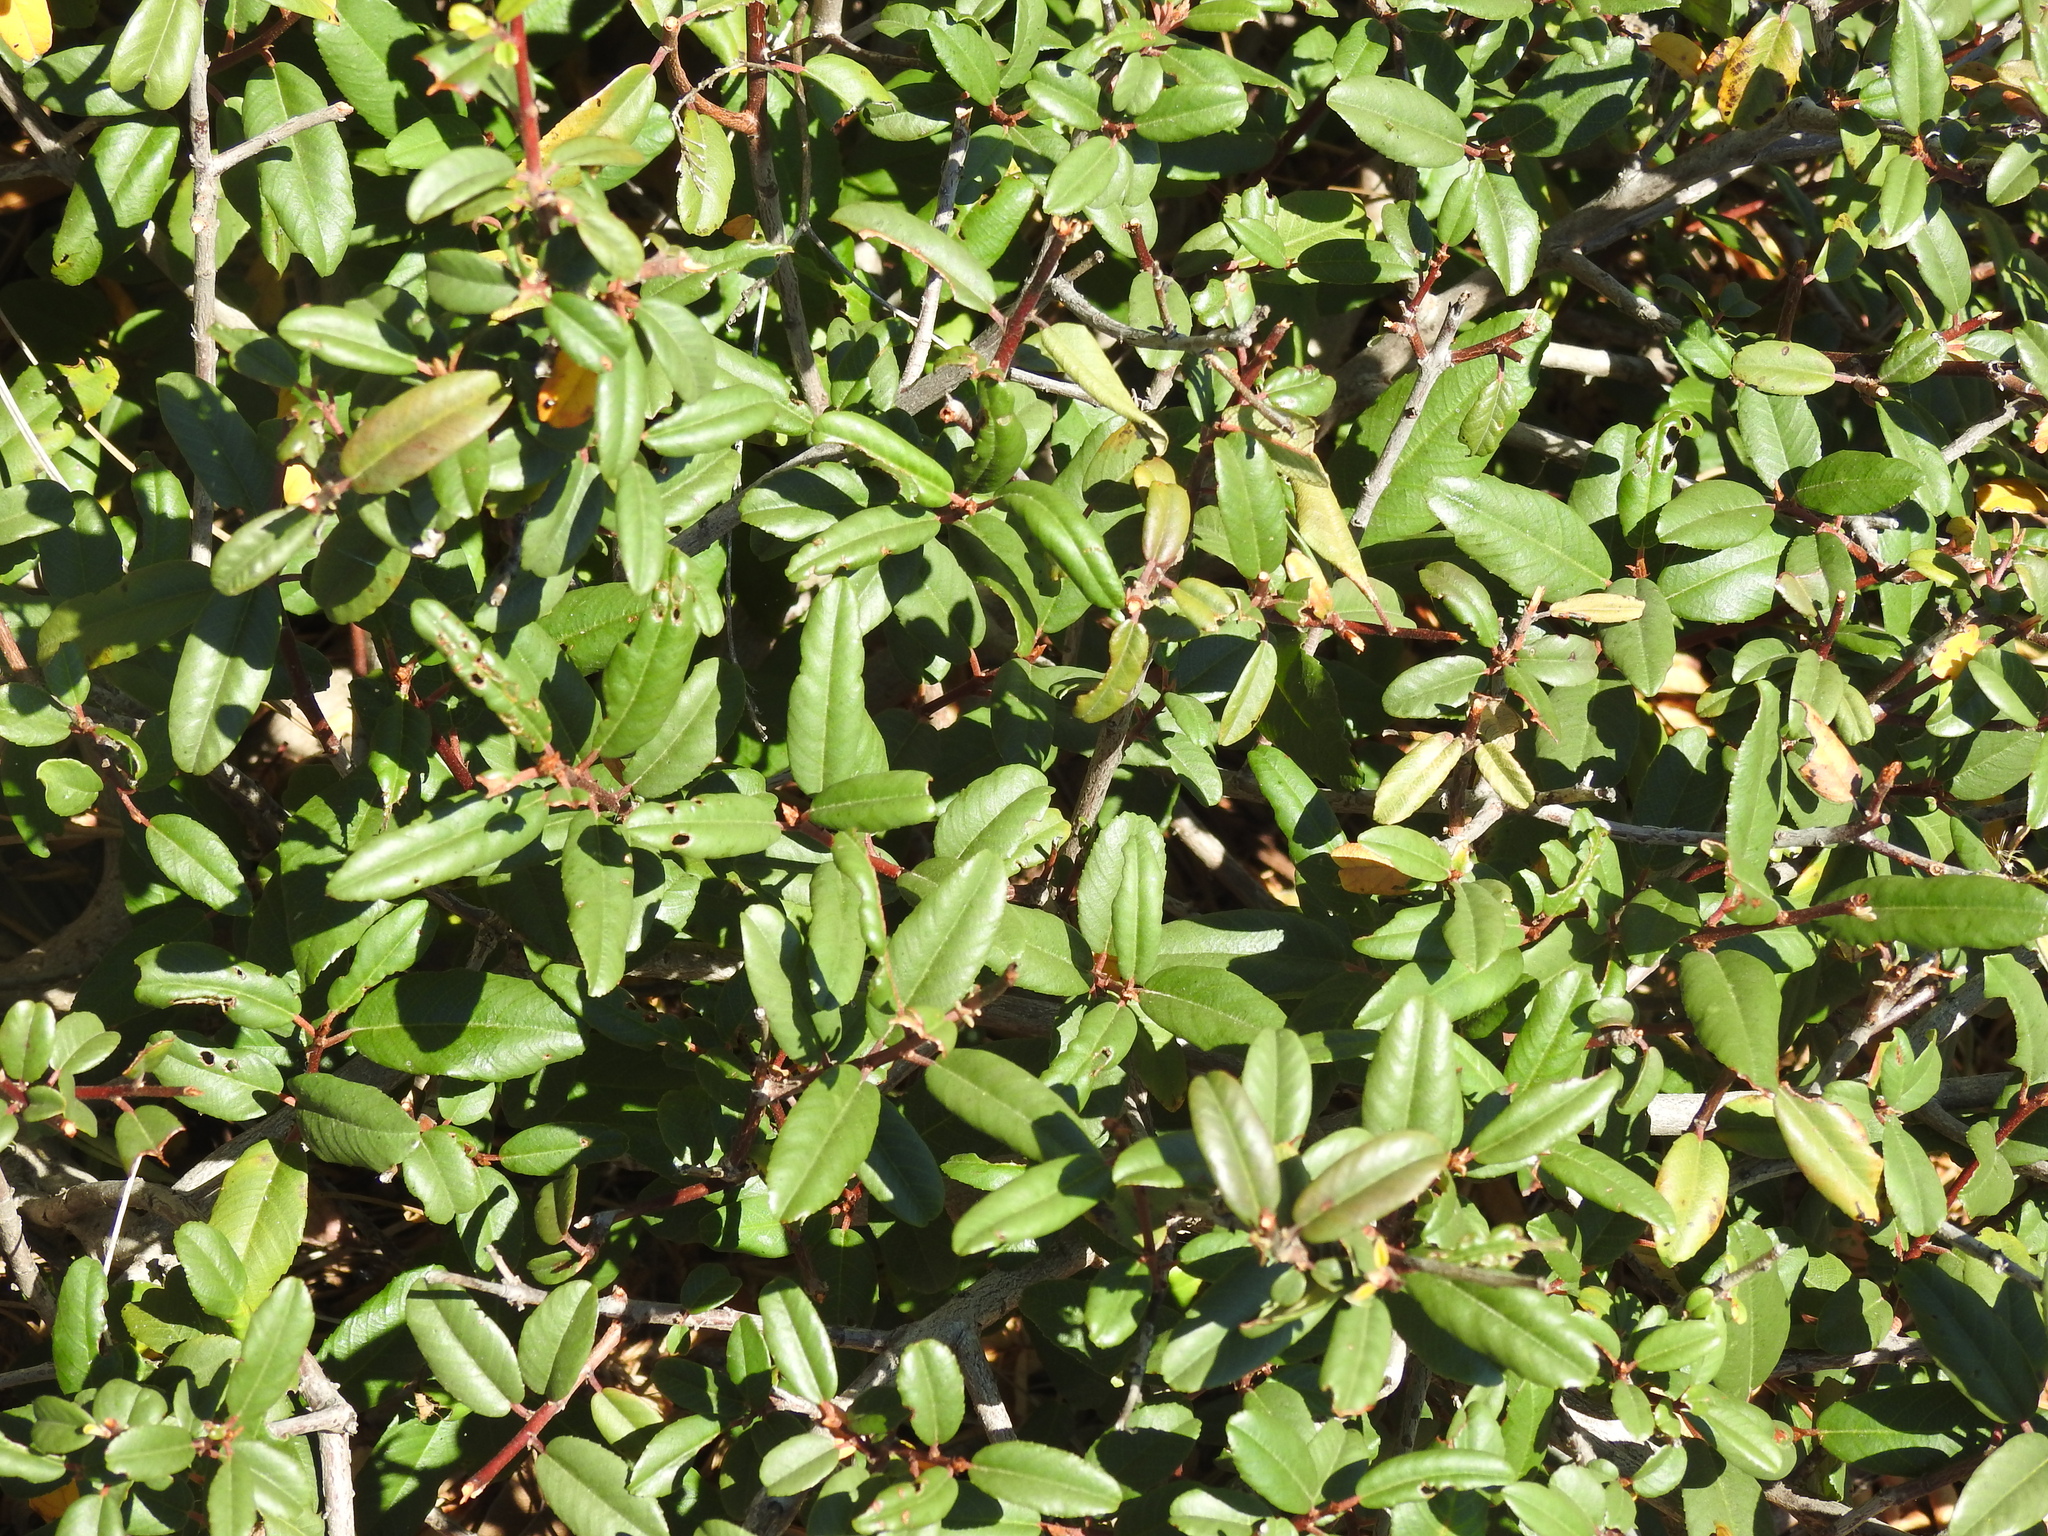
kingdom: Plantae
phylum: Tracheophyta
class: Magnoliopsida
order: Rosales
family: Rhamnaceae
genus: Frangula
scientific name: Frangula californica
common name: California buckthorn
